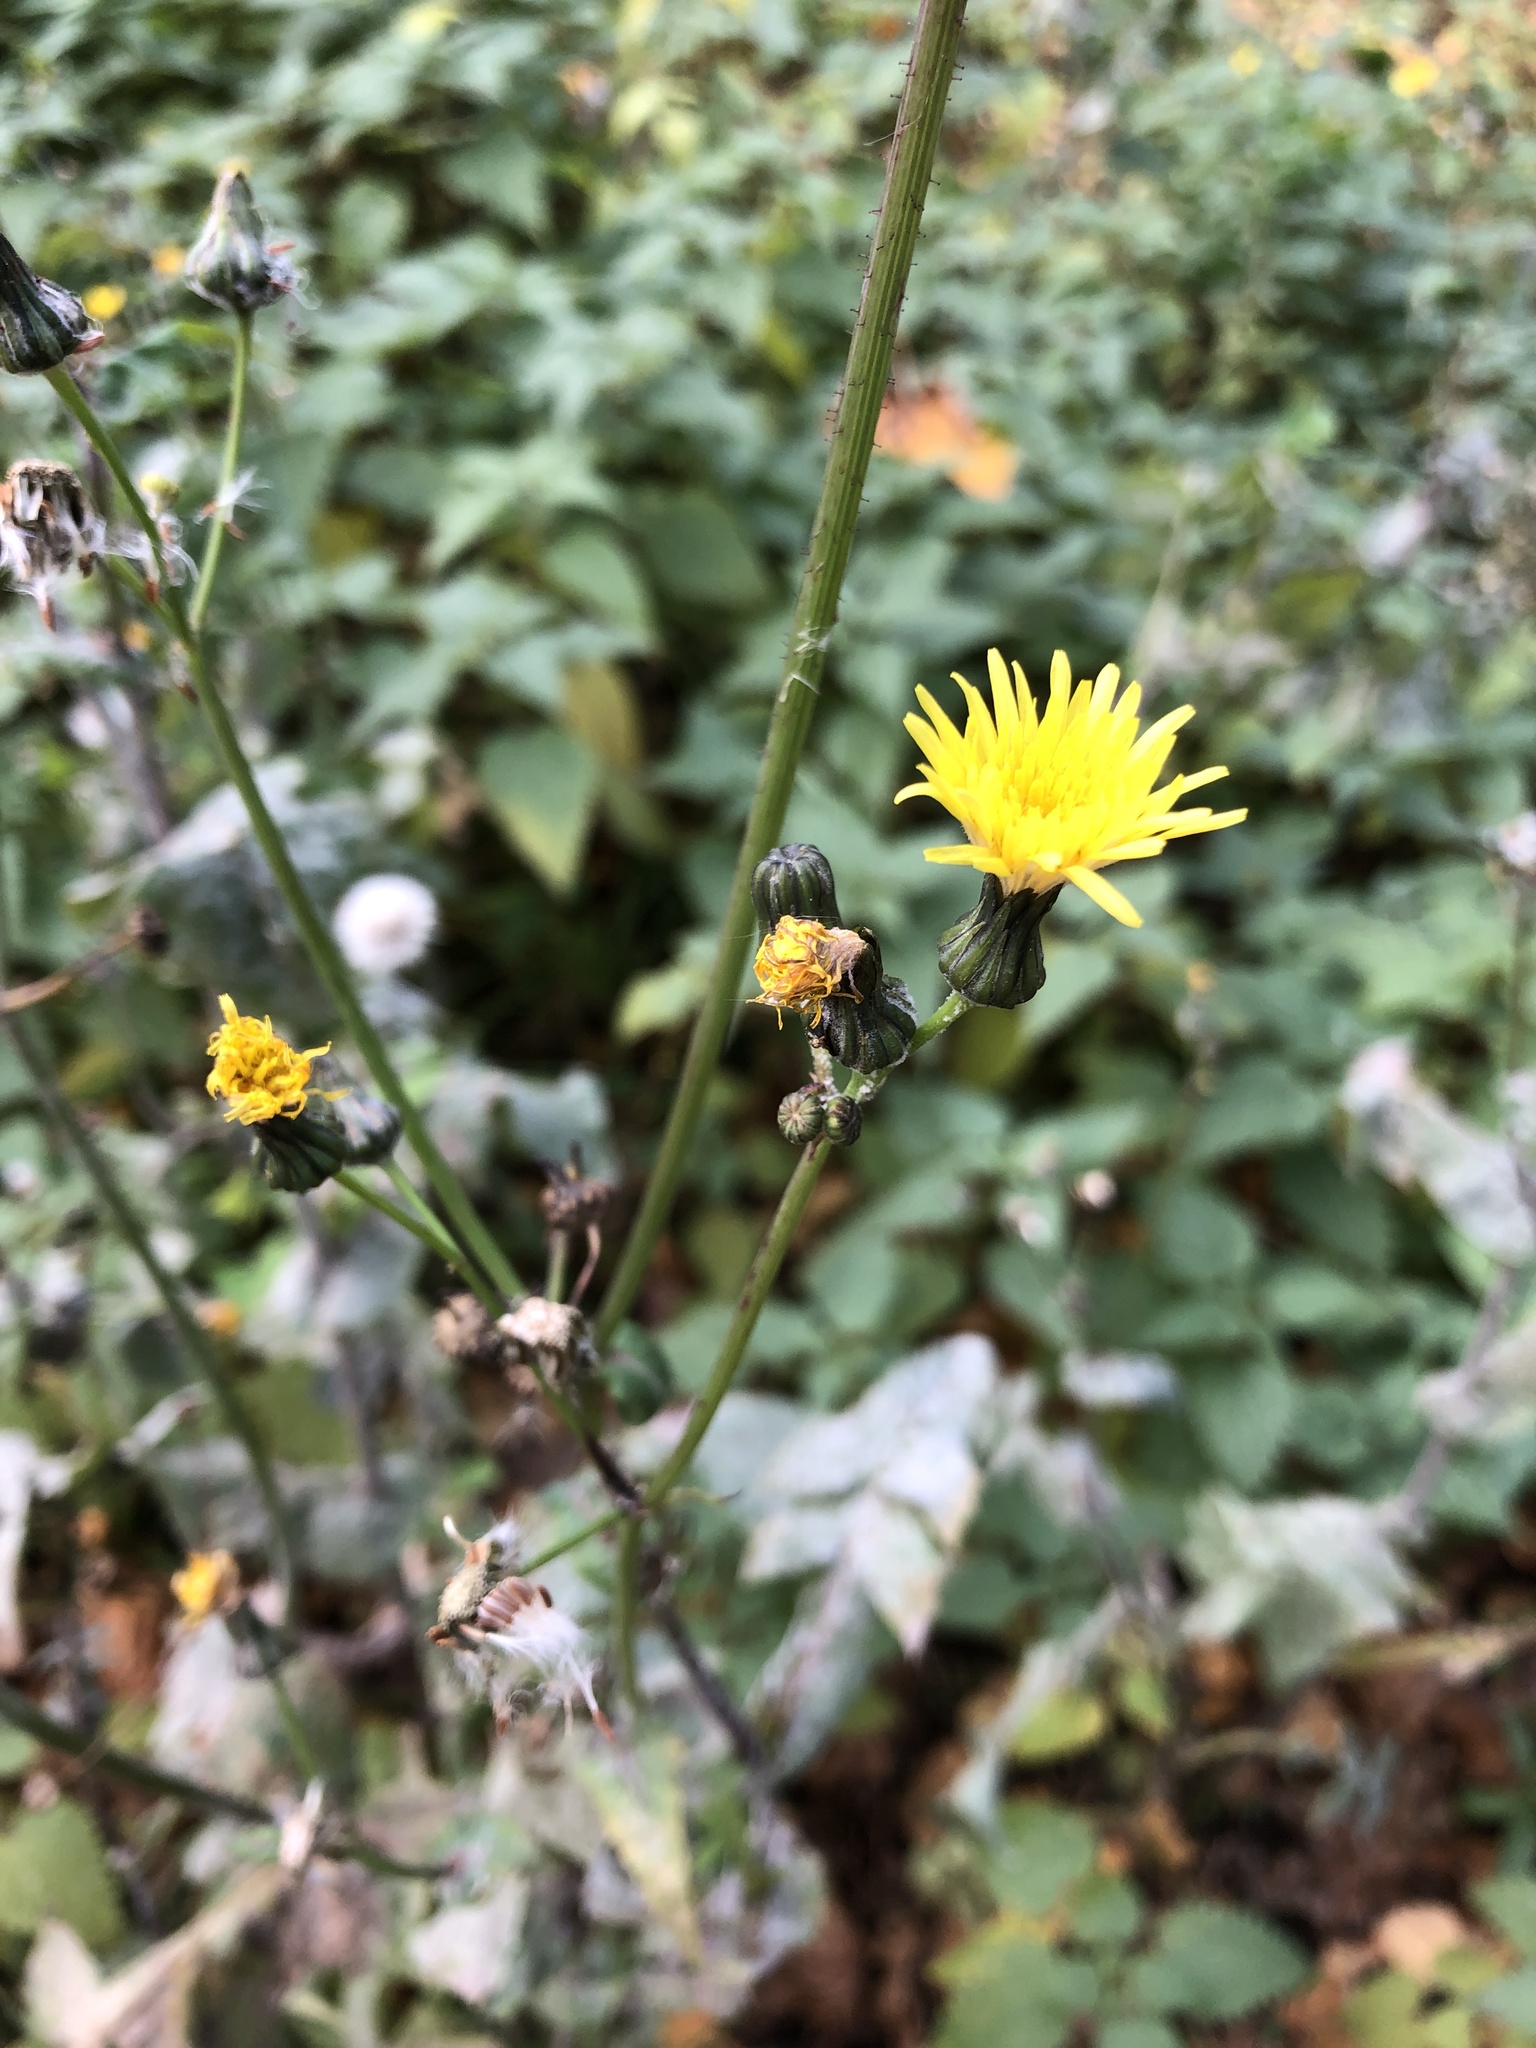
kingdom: Plantae
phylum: Tracheophyta
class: Magnoliopsida
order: Asterales
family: Asteraceae
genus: Sonchus
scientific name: Sonchus oleraceus
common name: Common sowthistle
